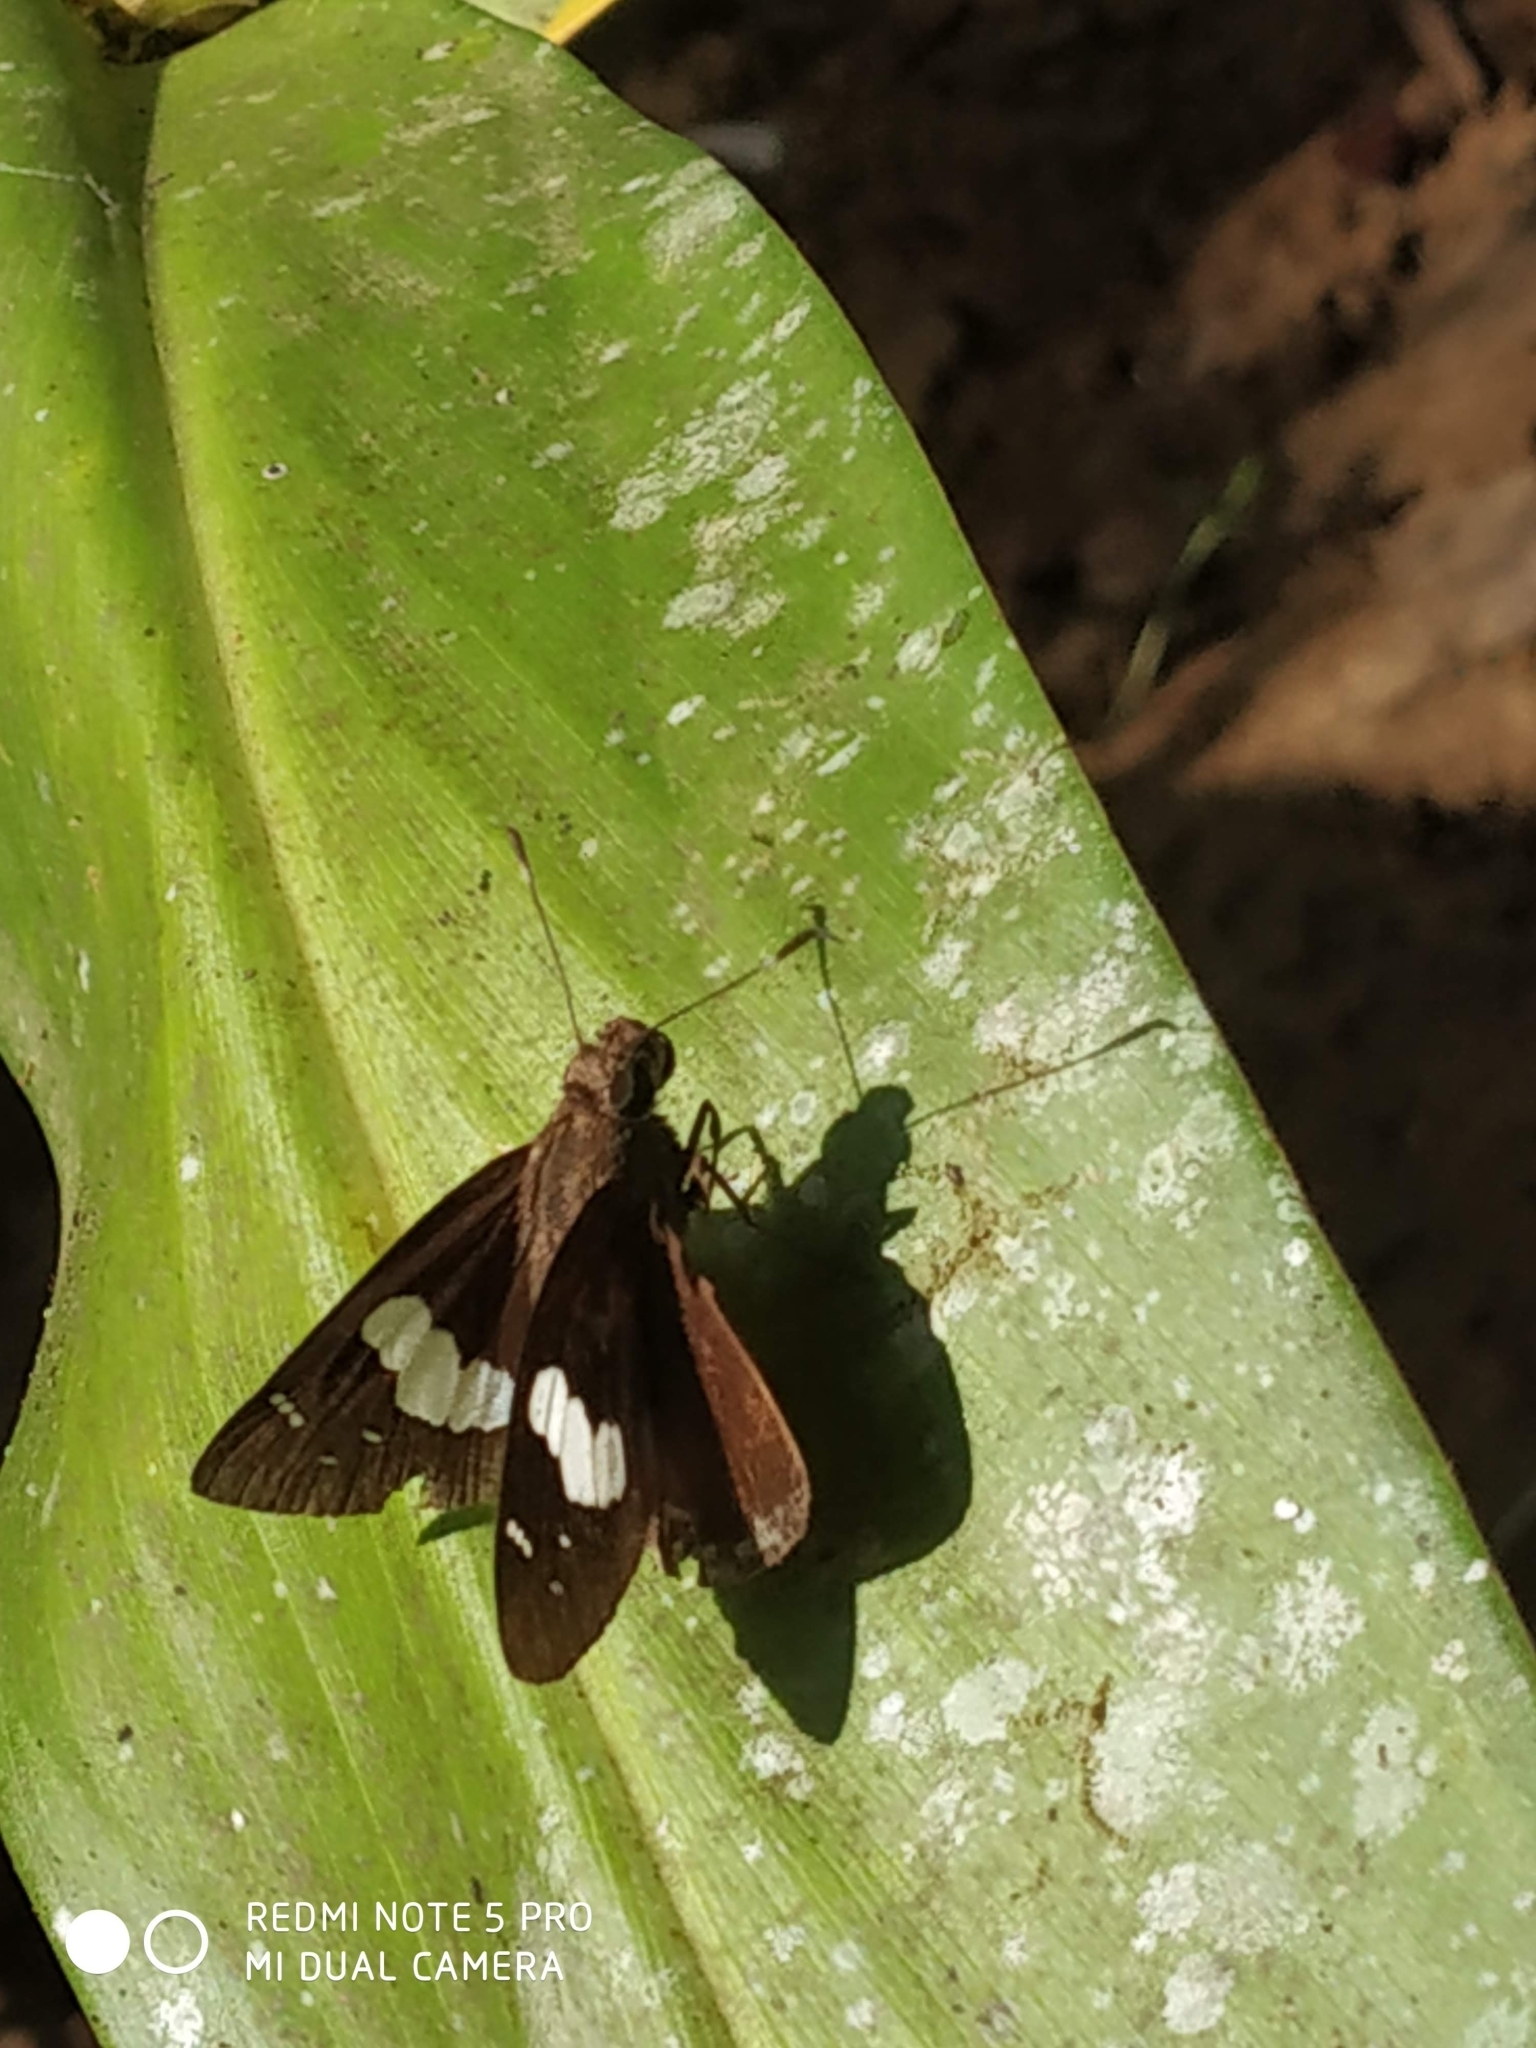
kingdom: Animalia
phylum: Arthropoda
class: Insecta
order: Lepidoptera
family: Hesperiidae
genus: Notocrypta
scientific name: Notocrypta curvifascia
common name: Restricted demon
